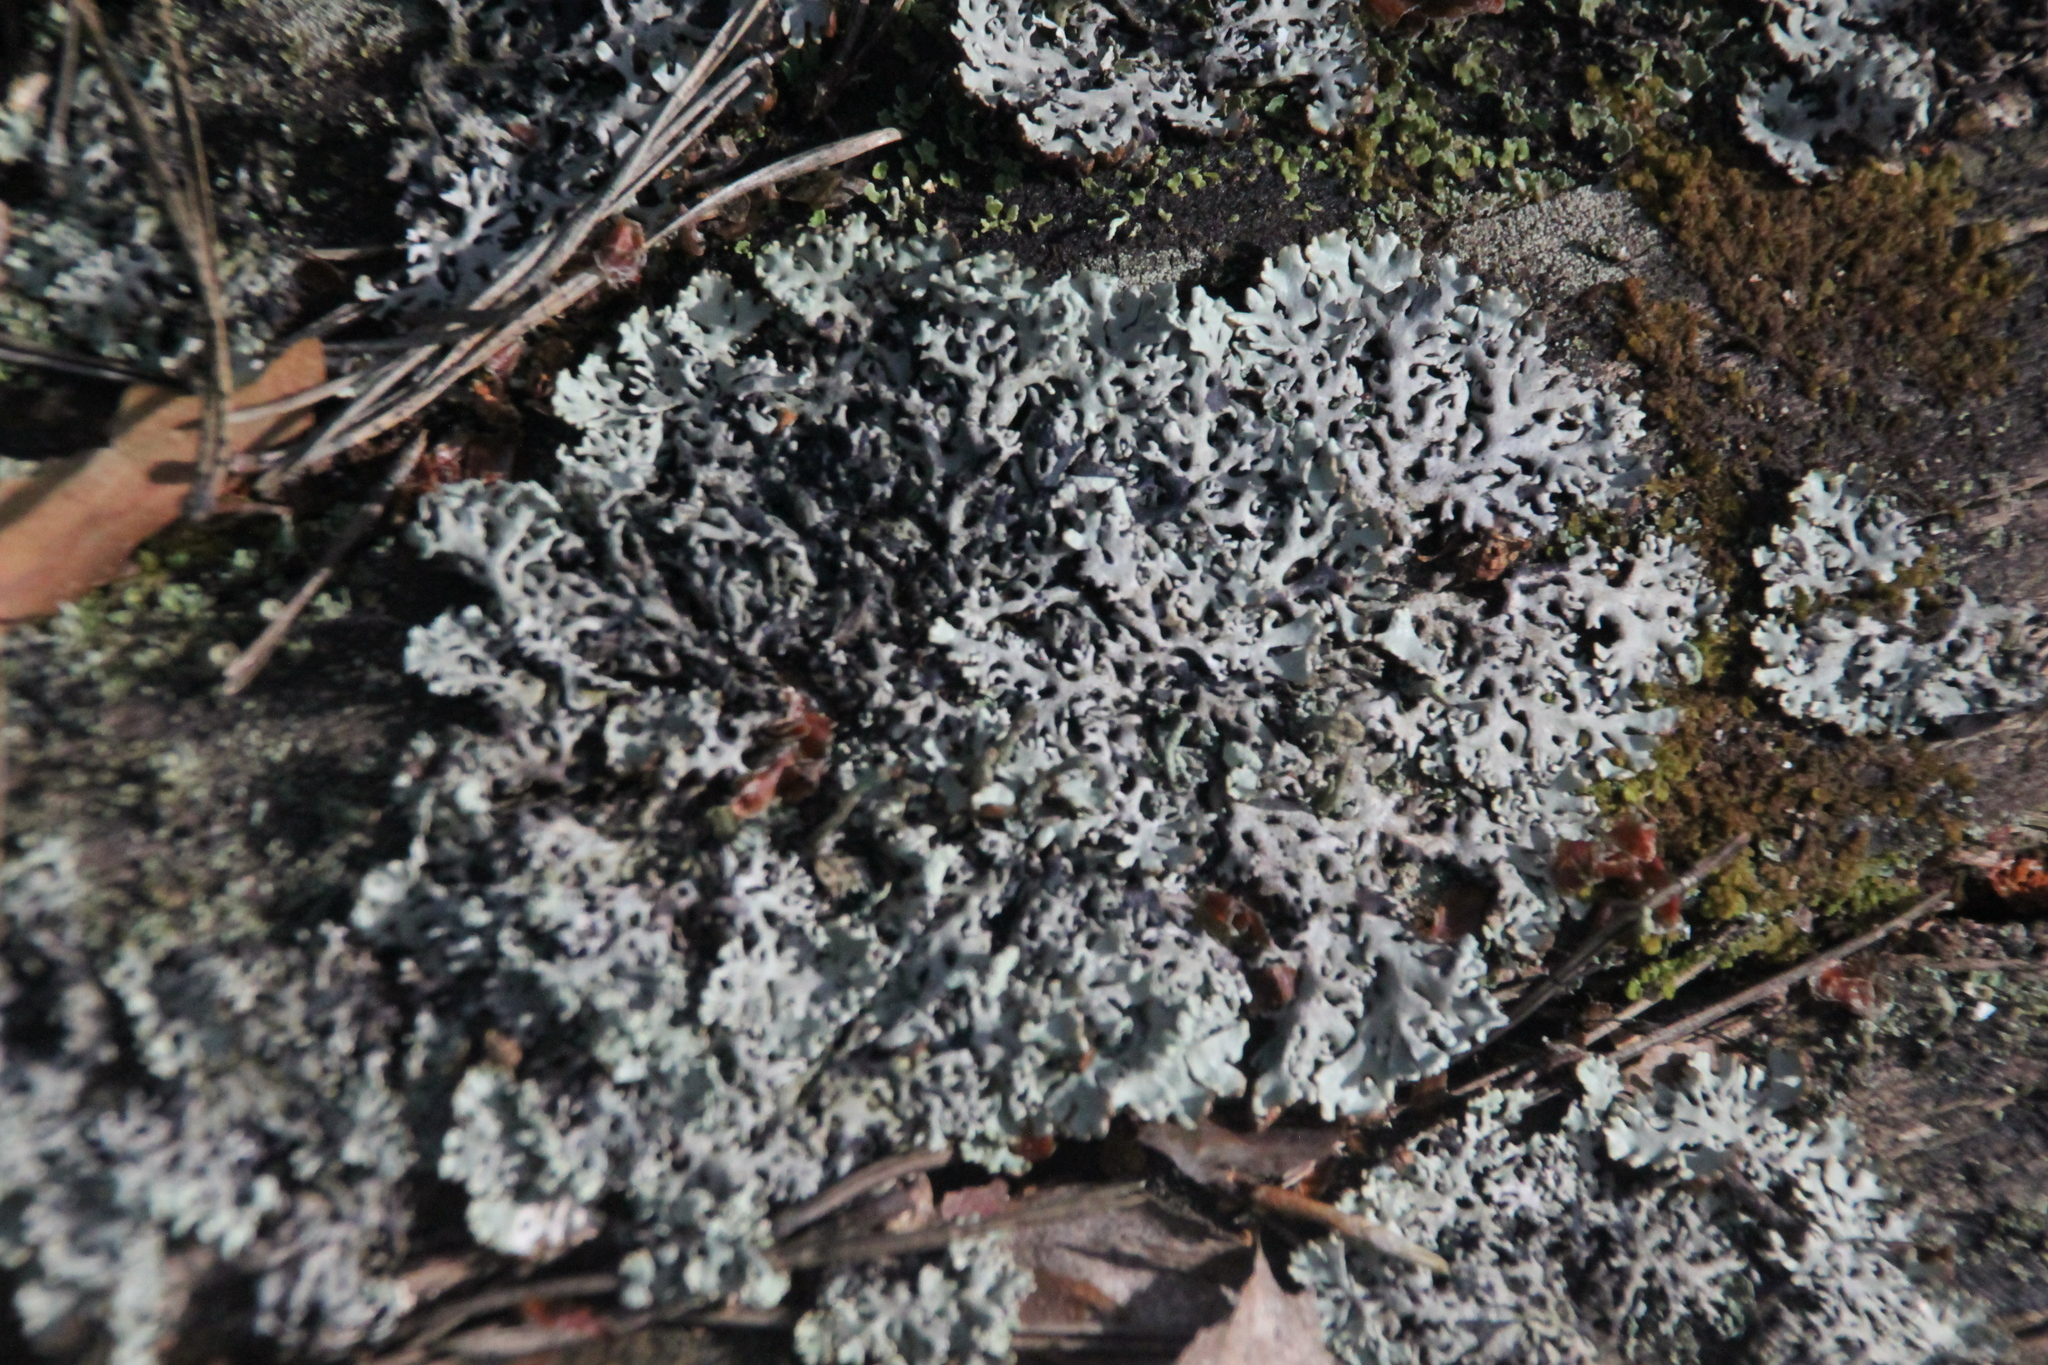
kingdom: Fungi
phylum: Ascomycota
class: Lecanoromycetes
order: Lecanorales
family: Parmeliaceae
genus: Hypogymnia
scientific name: Hypogymnia physodes
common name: Dark crottle
